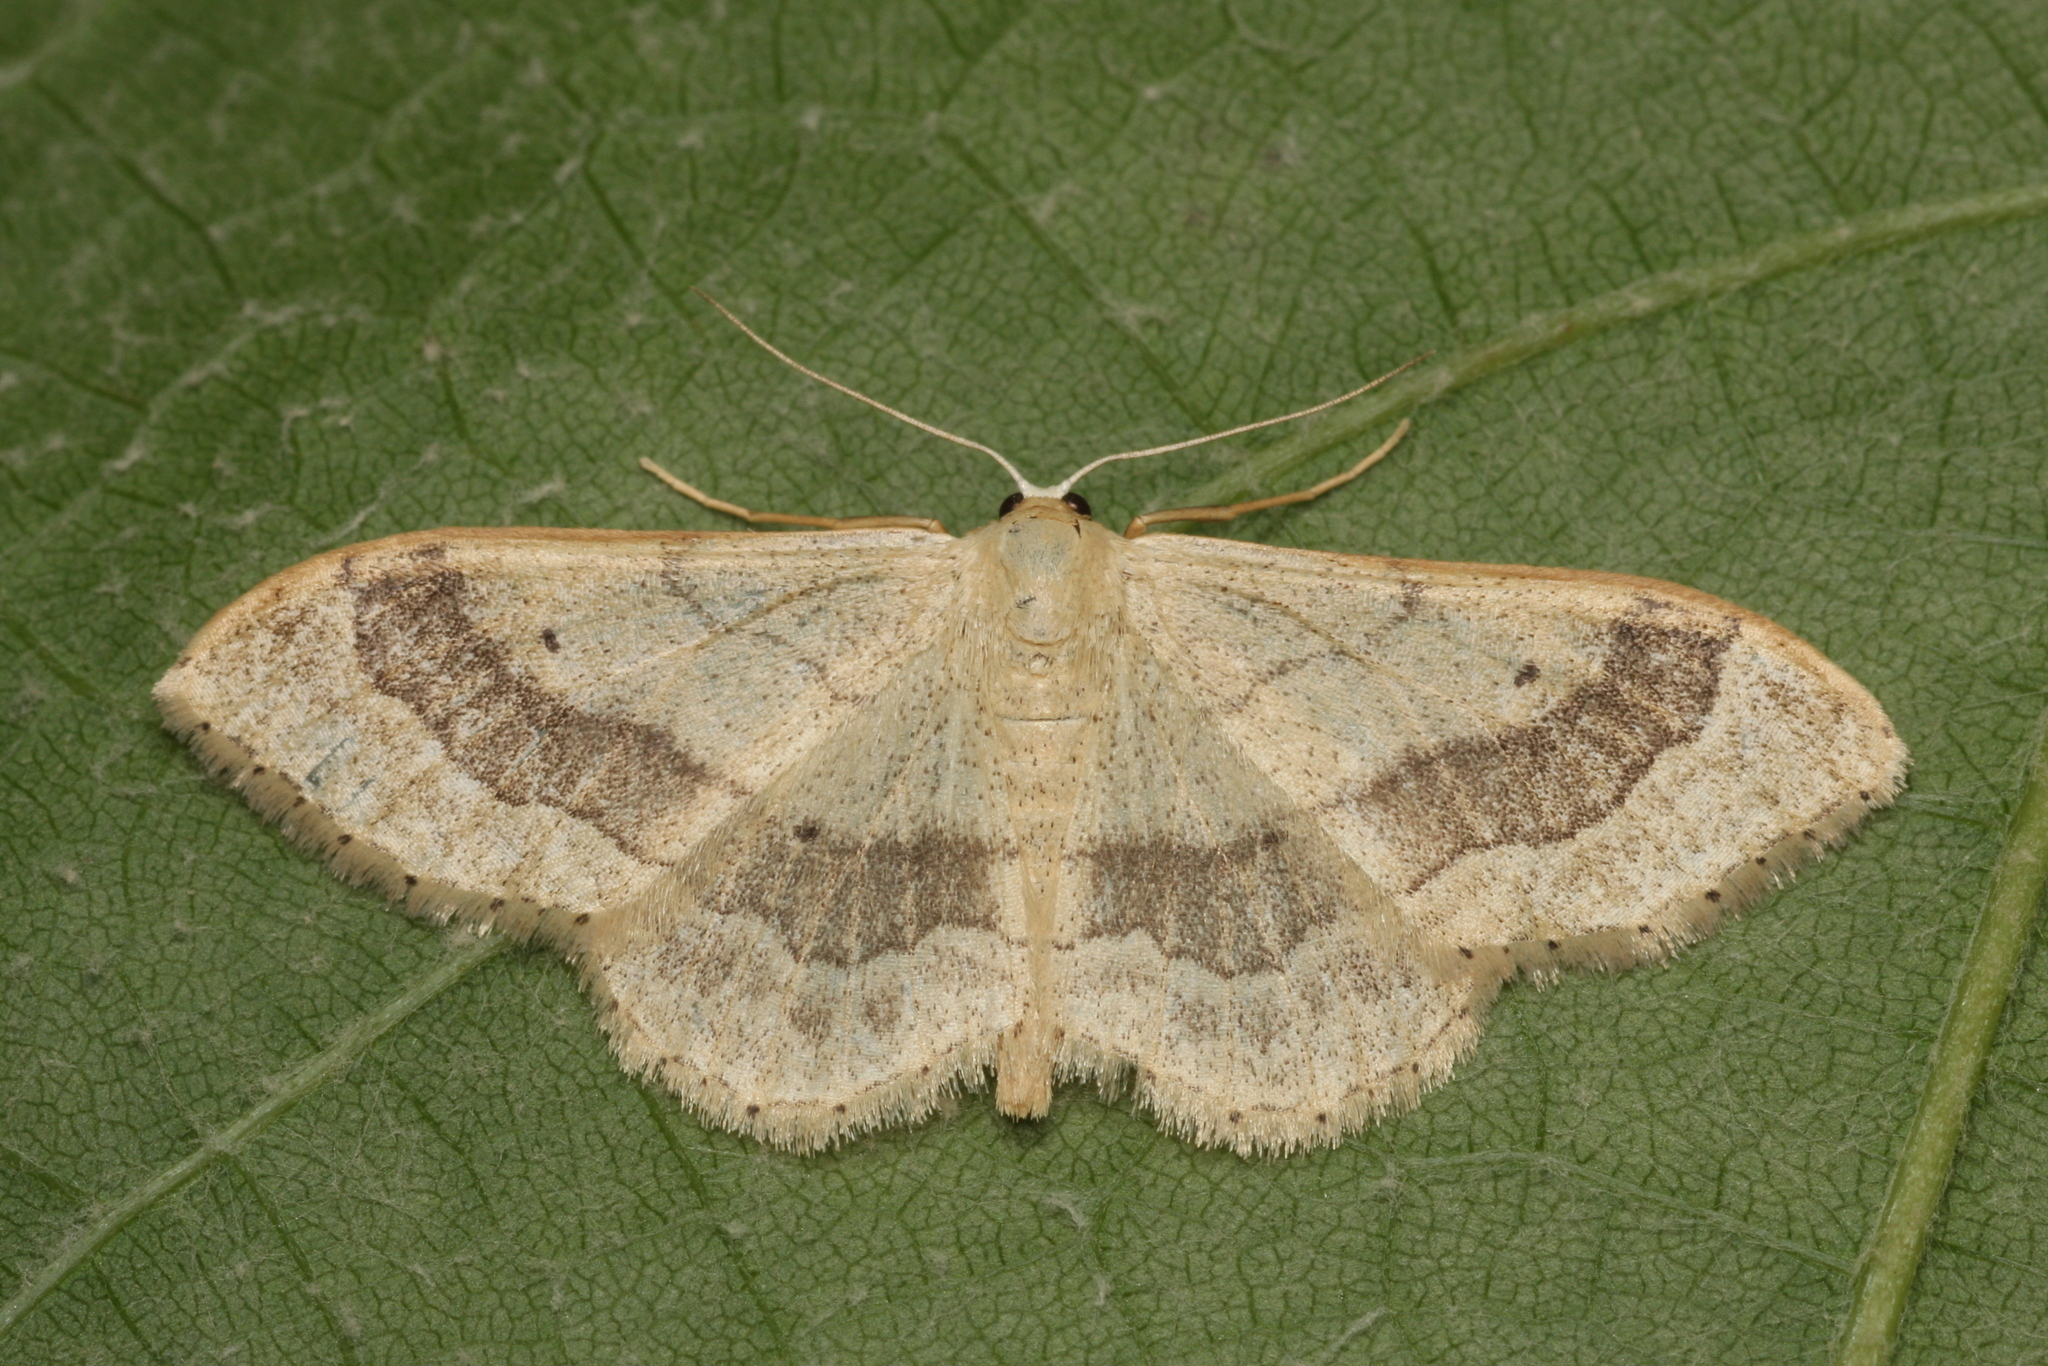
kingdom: Animalia
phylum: Arthropoda
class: Insecta
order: Lepidoptera
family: Geometridae
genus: Idaea
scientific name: Idaea aversata
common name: Riband wave
